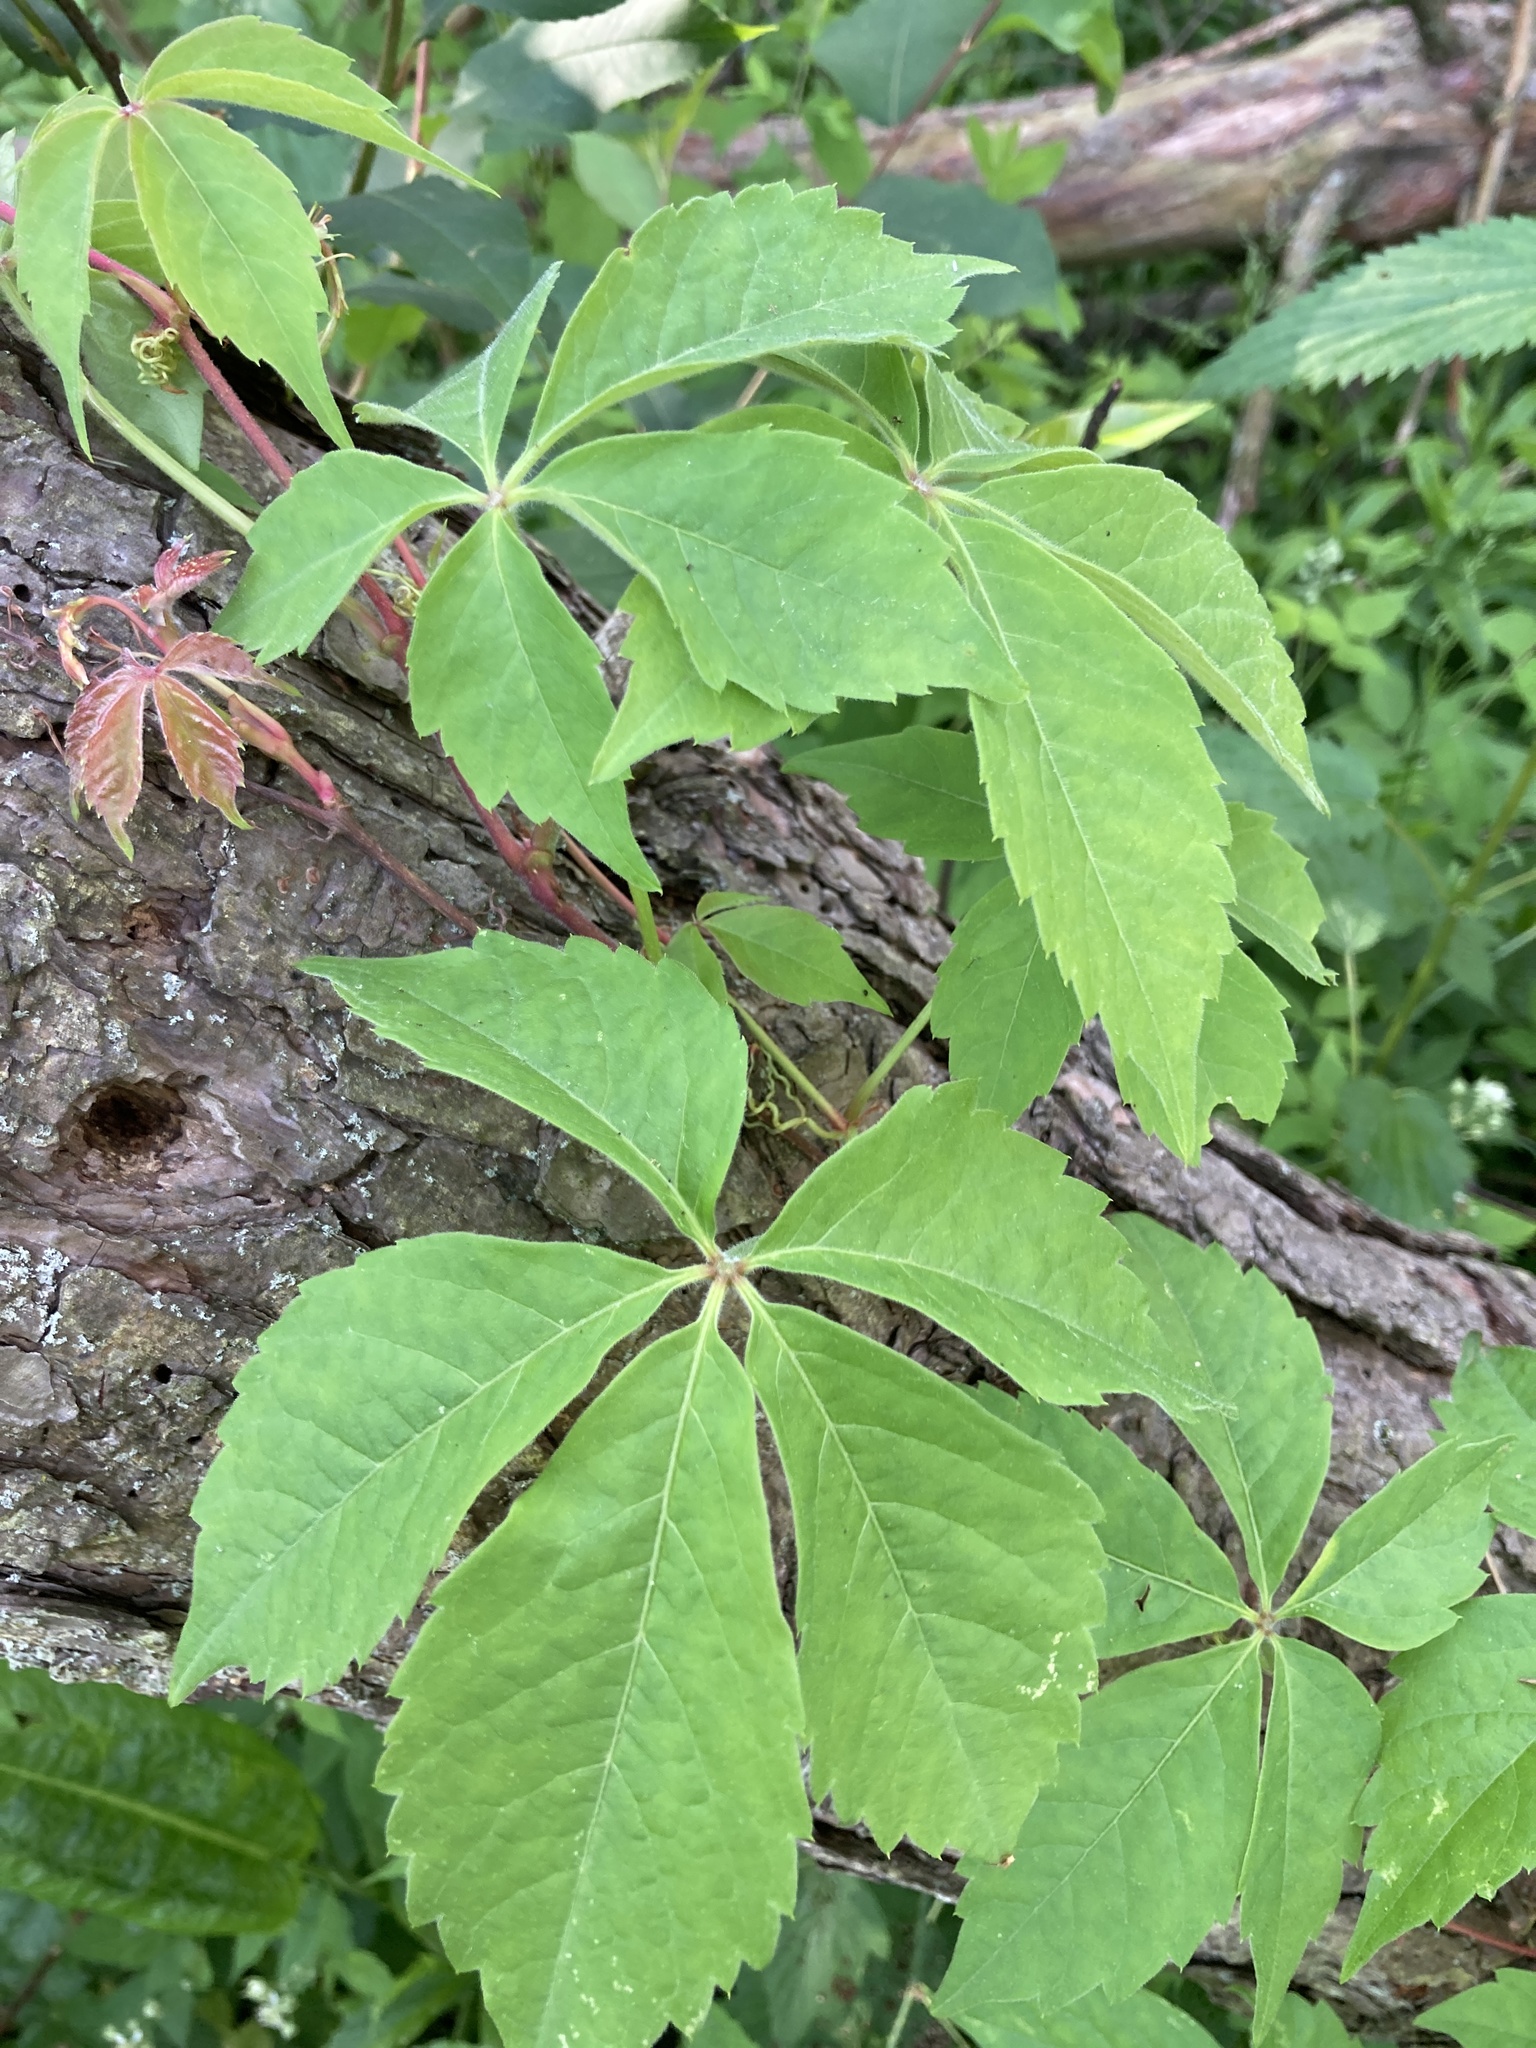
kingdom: Plantae
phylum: Tracheophyta
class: Magnoliopsida
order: Vitales
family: Vitaceae
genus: Parthenocissus
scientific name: Parthenocissus quinquefolia
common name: Virginia-creeper
